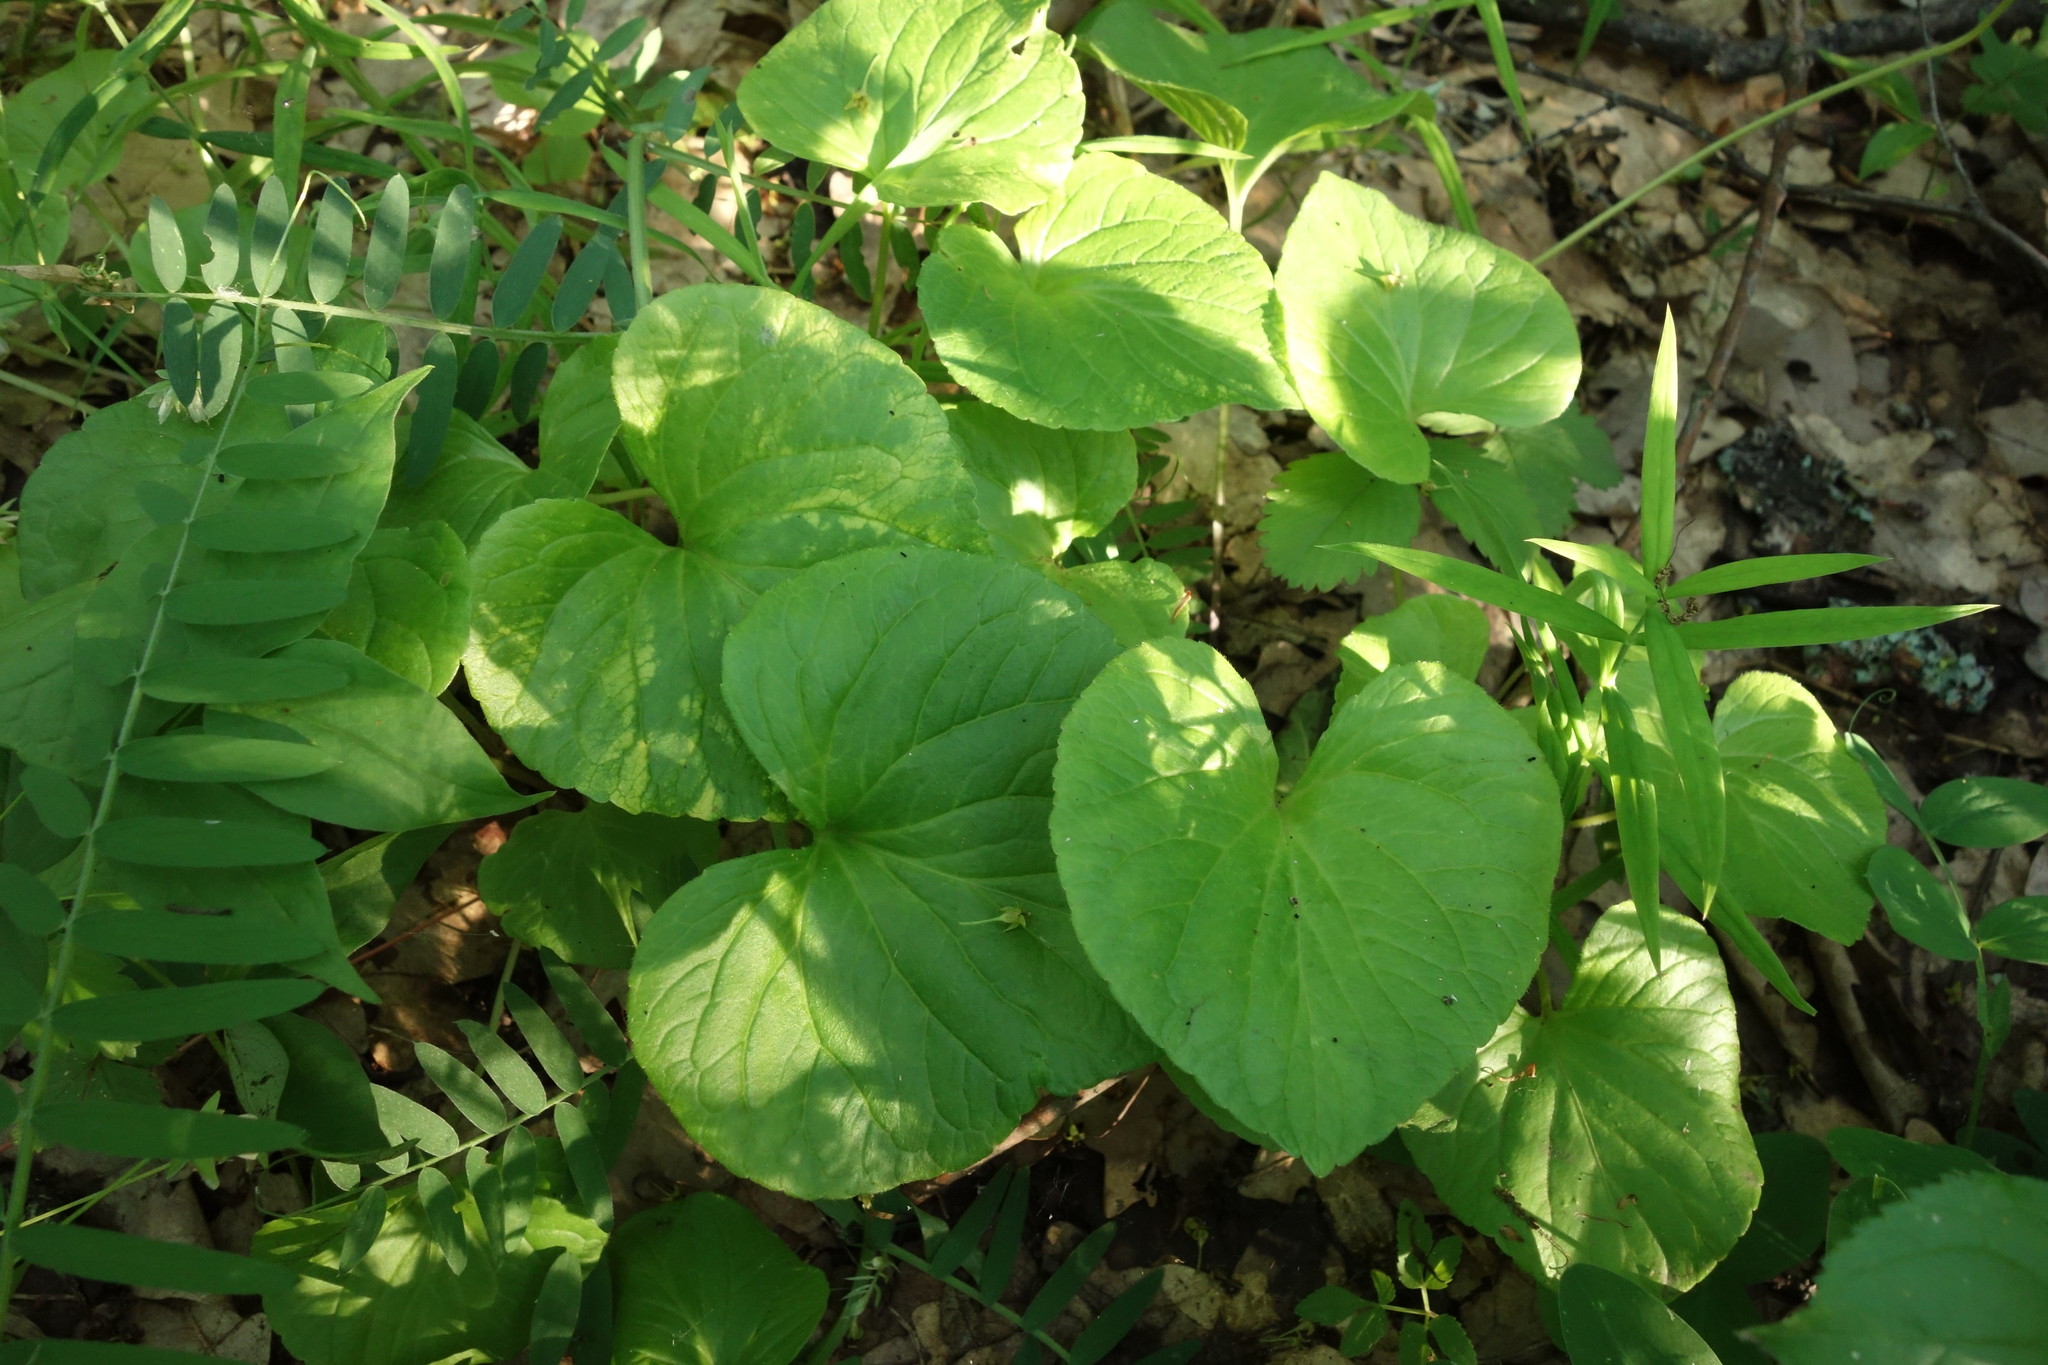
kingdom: Plantae
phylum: Tracheophyta
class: Magnoliopsida
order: Malpighiales
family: Violaceae
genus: Viola
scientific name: Viola mirabilis
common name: Wonder violet
